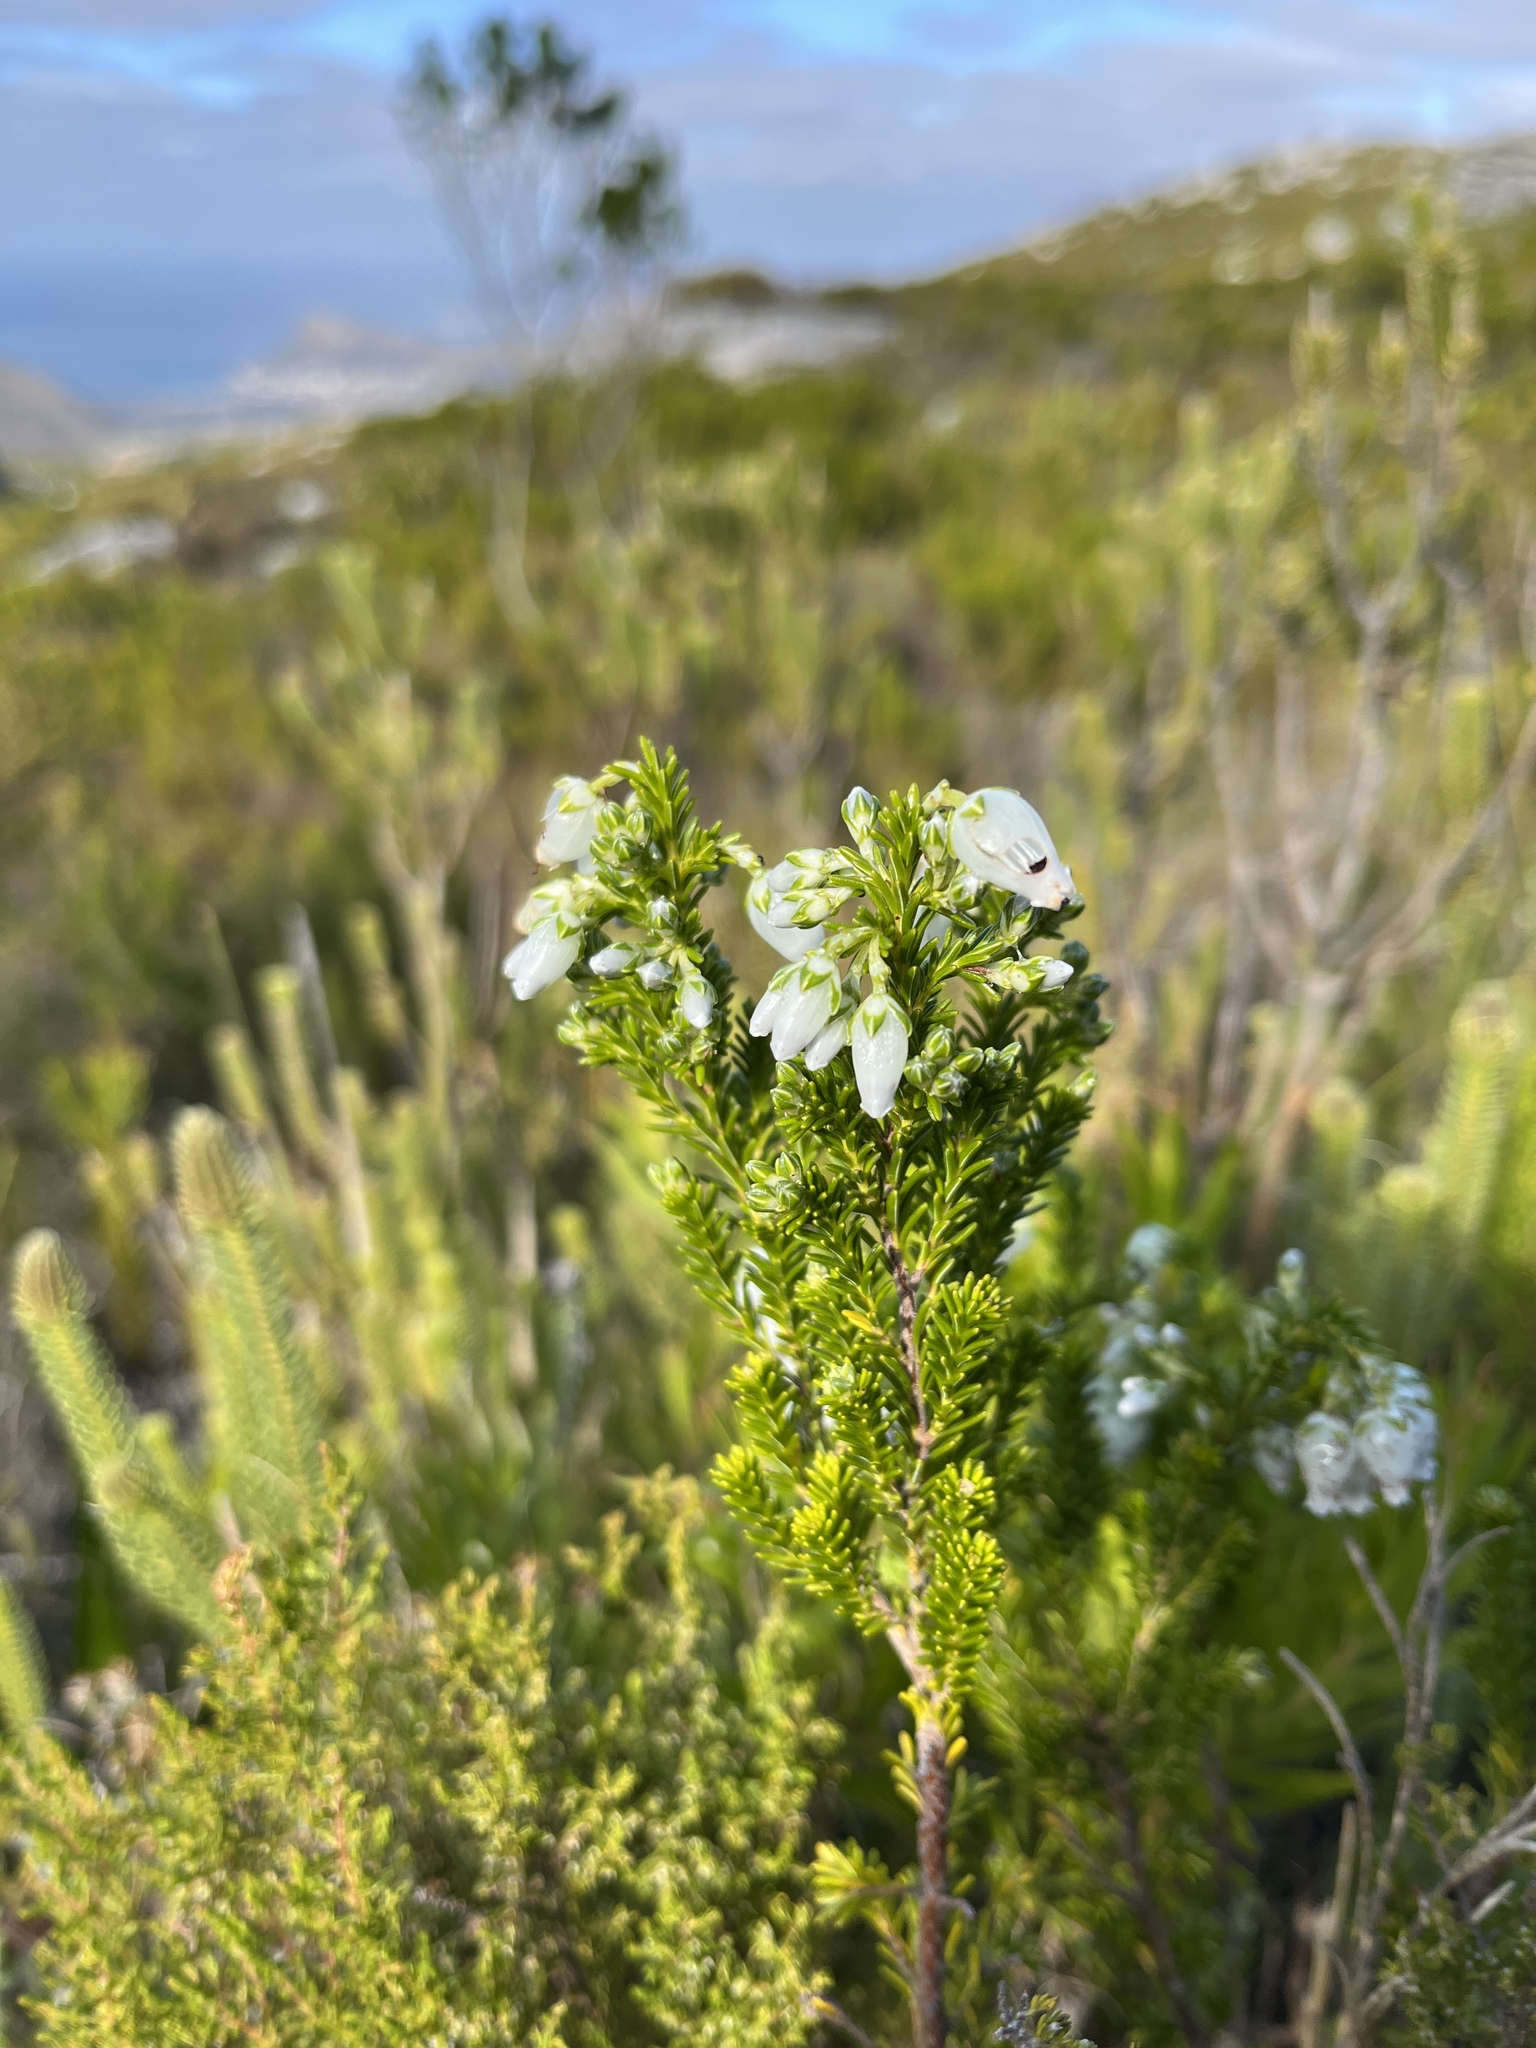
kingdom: Plantae
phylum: Tracheophyta
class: Magnoliopsida
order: Ericales
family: Ericaceae
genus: Erica
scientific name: Erica physodes
